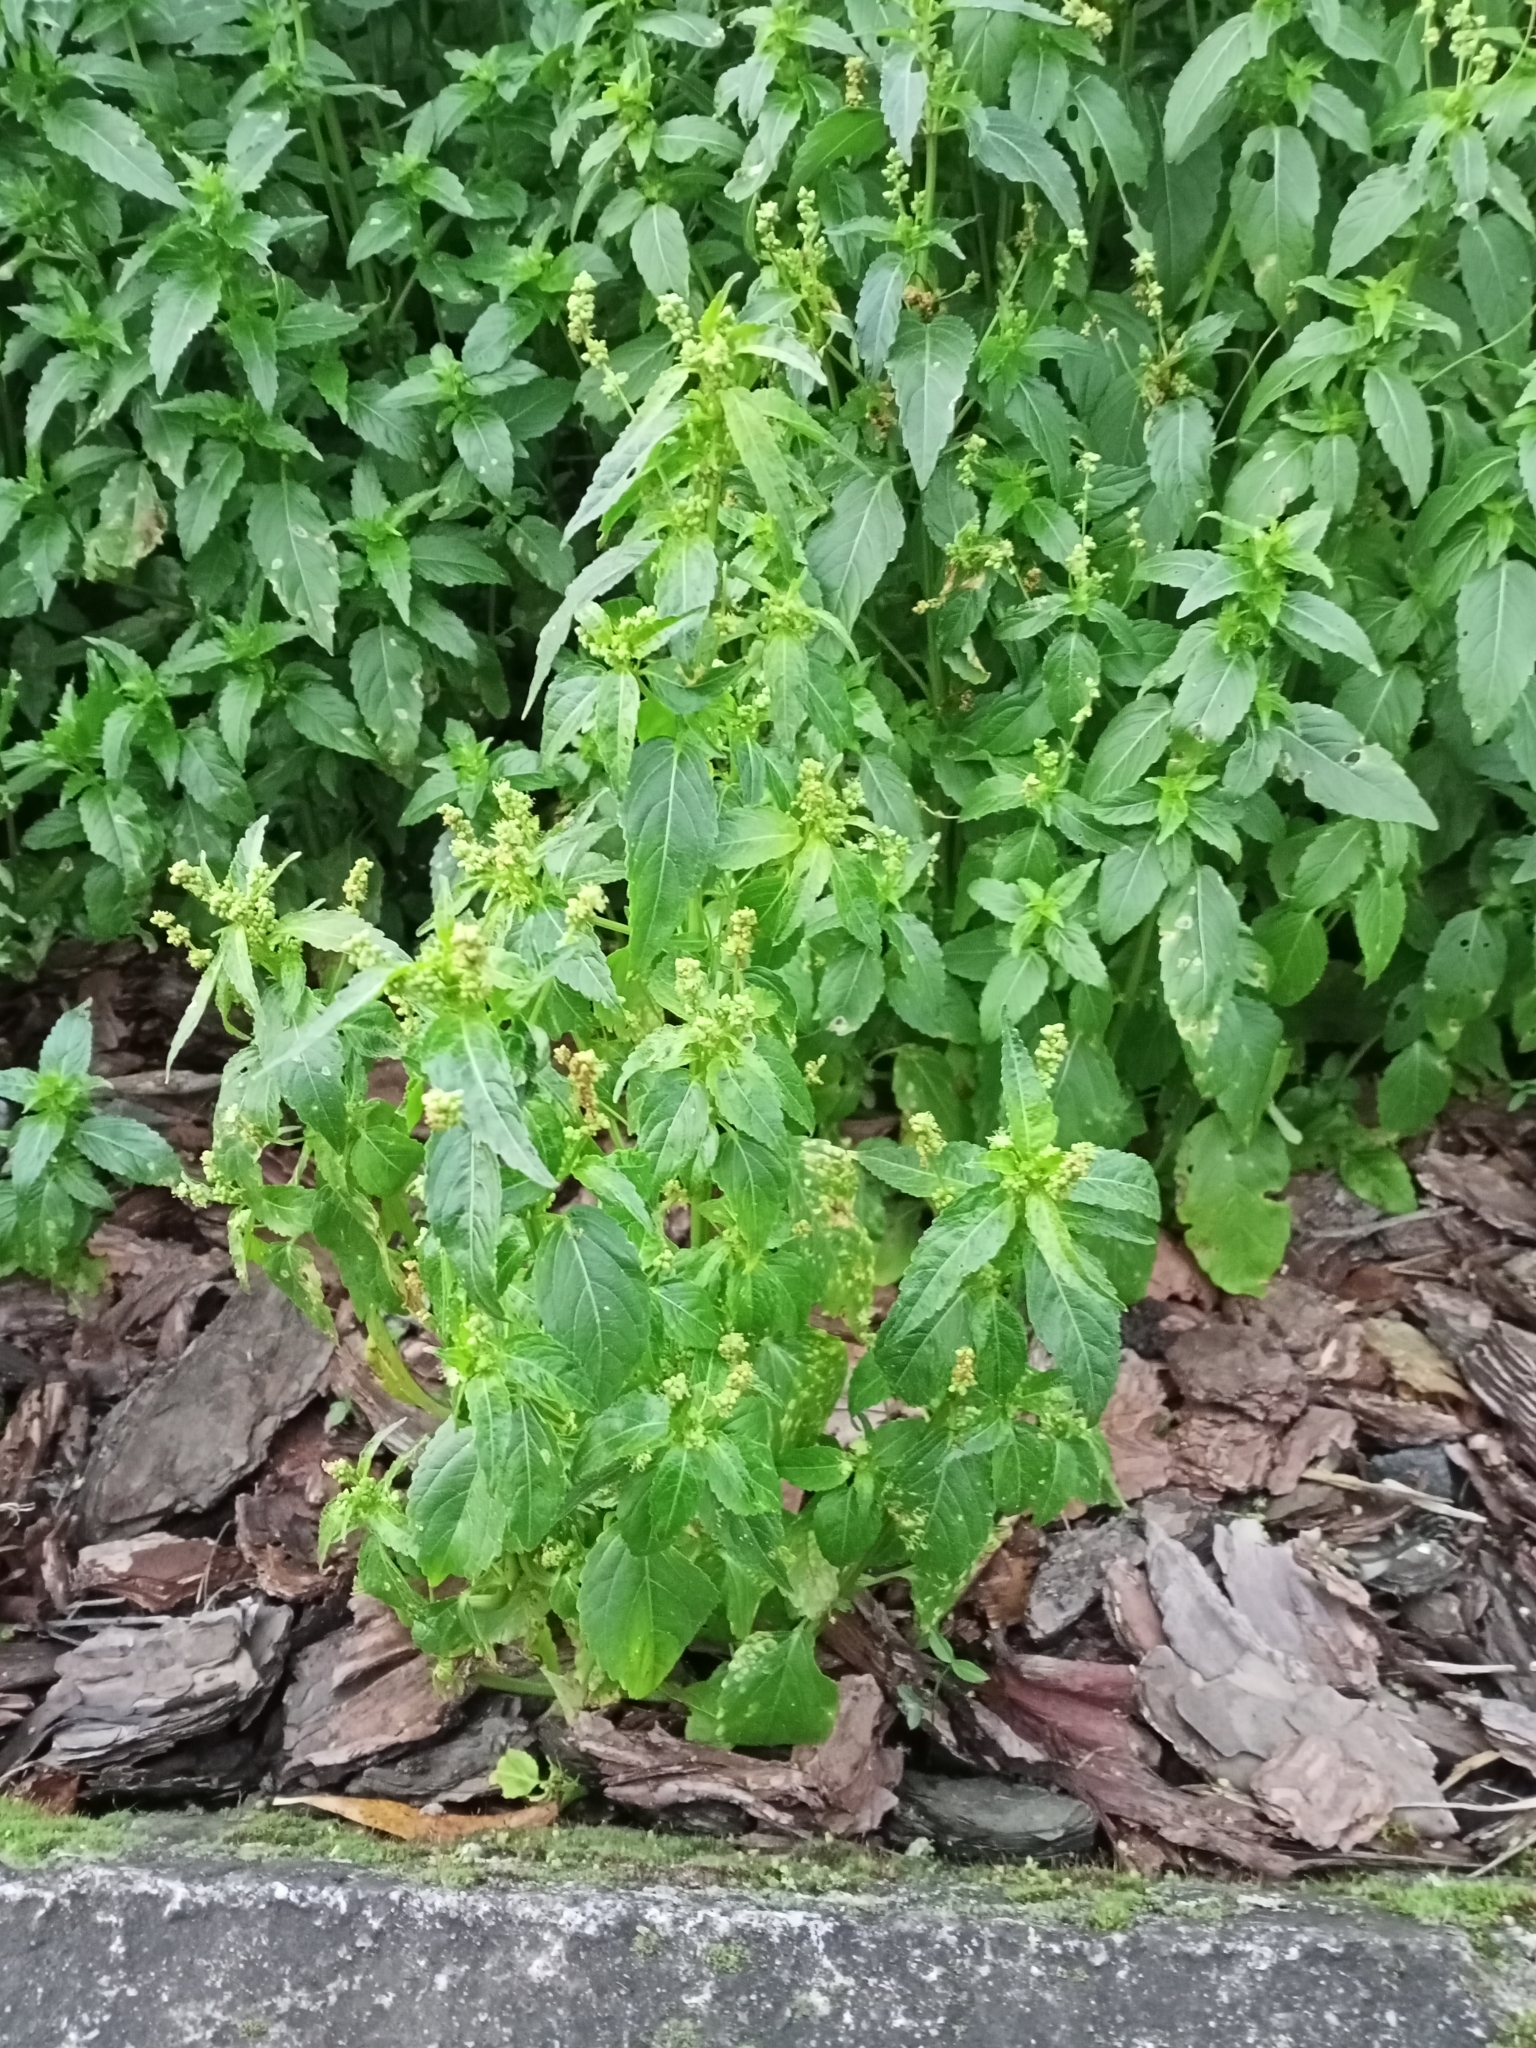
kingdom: Plantae
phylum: Tracheophyta
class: Magnoliopsida
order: Malpighiales
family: Euphorbiaceae
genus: Mercurialis
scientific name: Mercurialis annua
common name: Annual mercury
